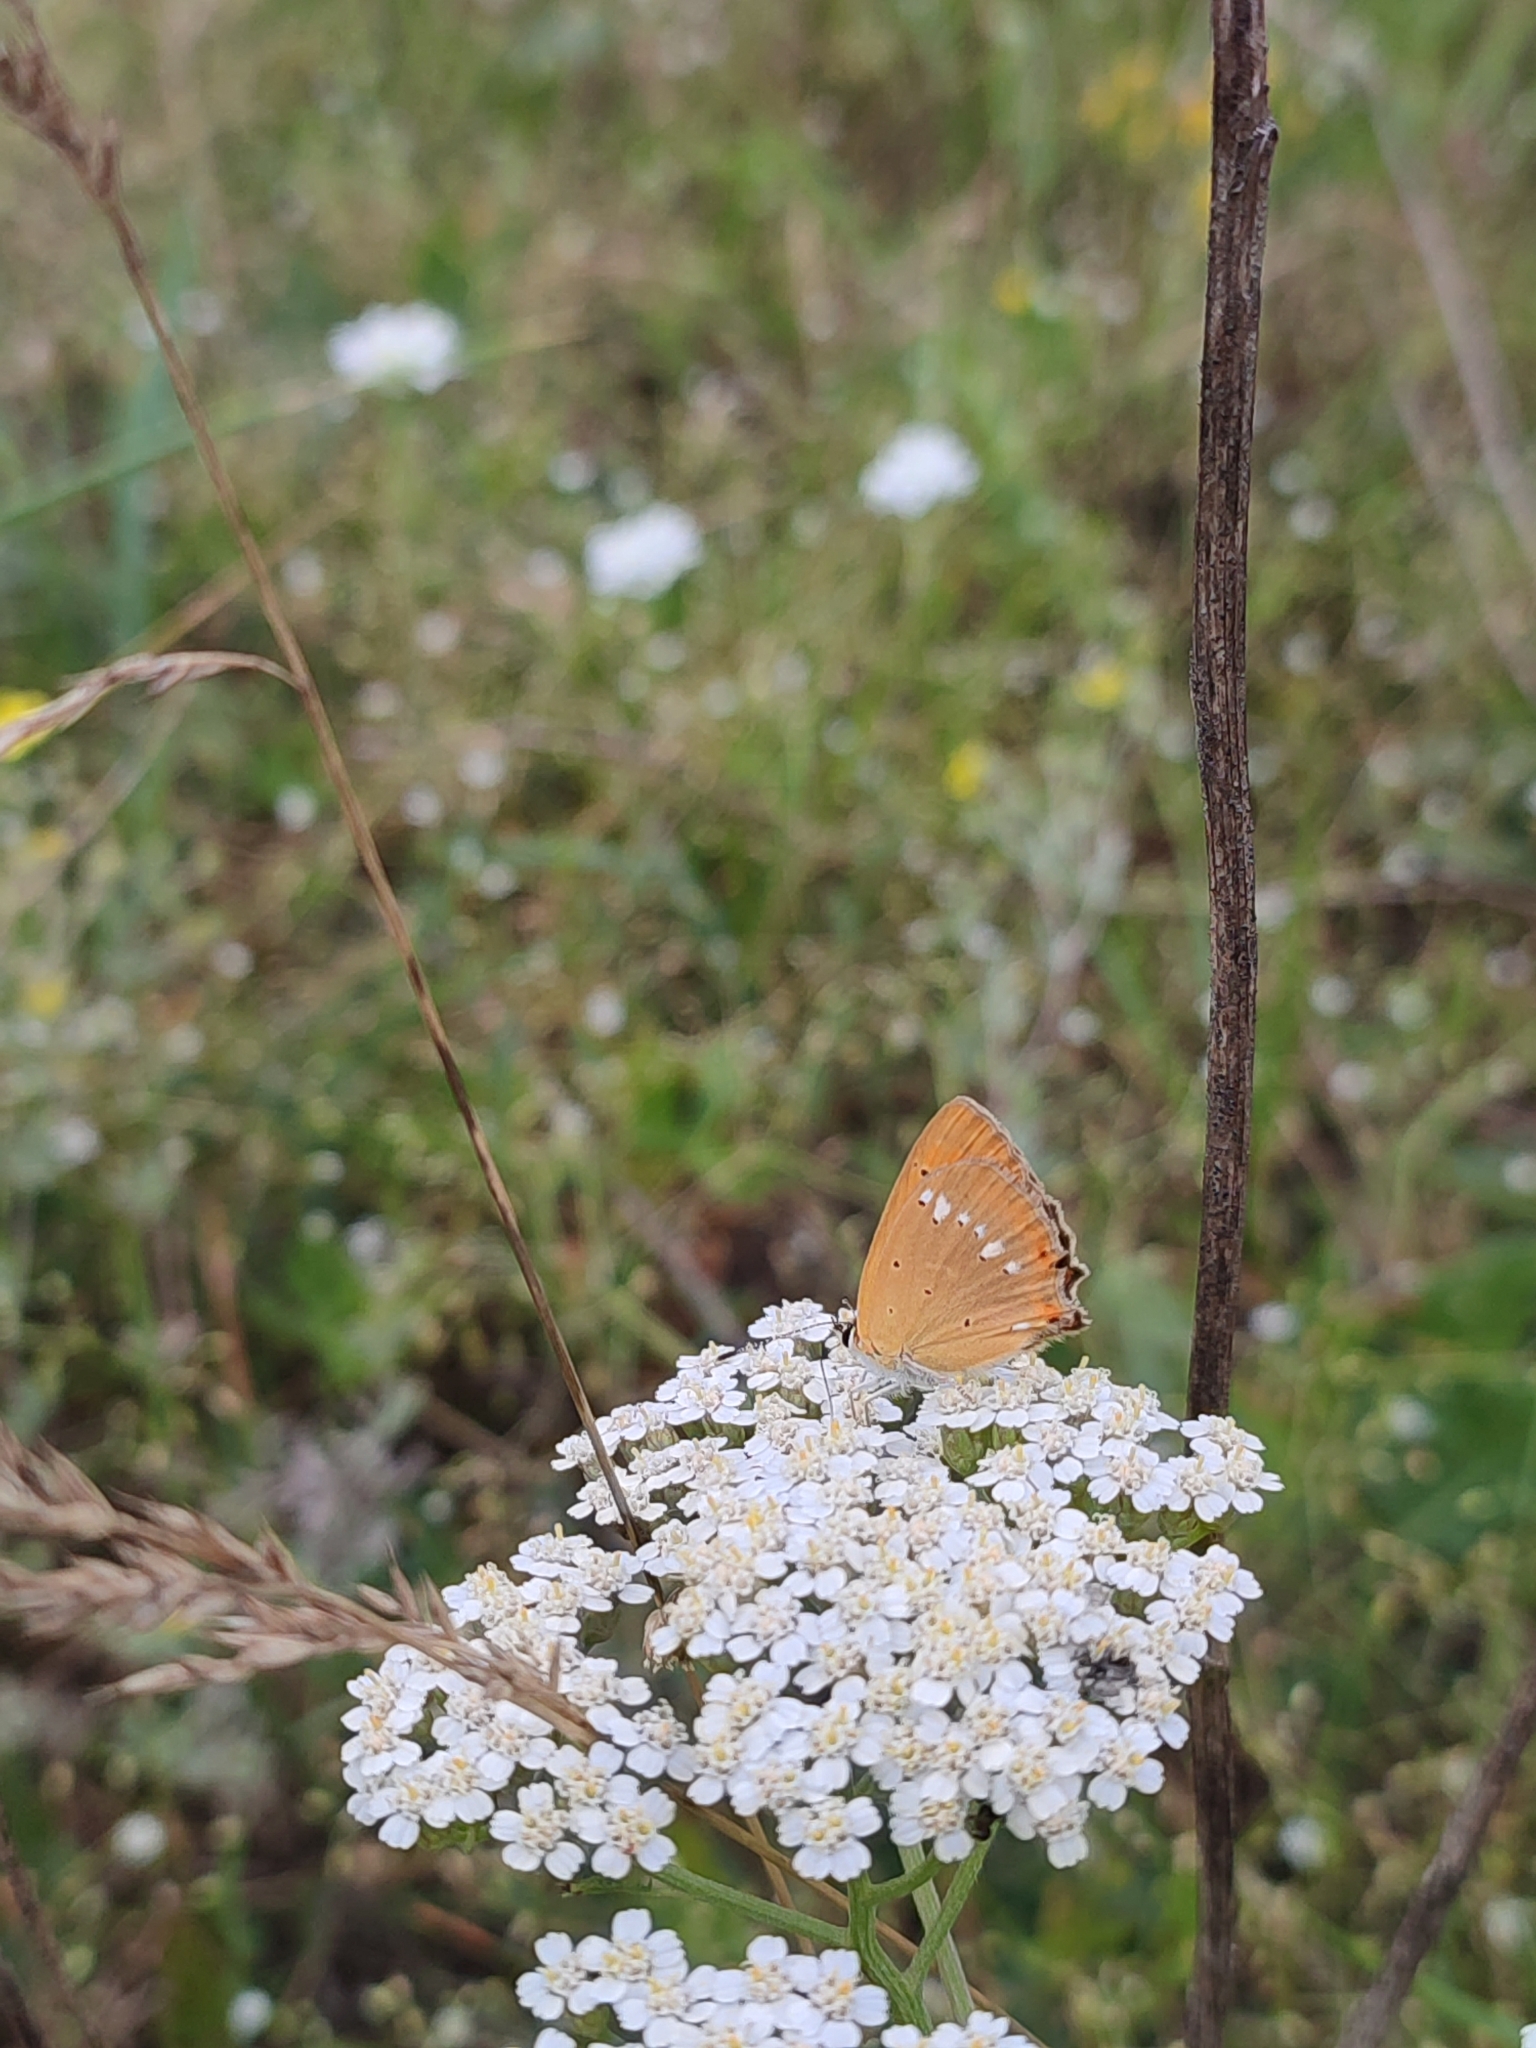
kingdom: Animalia
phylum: Arthropoda
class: Insecta
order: Lepidoptera
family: Lycaenidae
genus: Lycaena
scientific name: Lycaena virgaureae
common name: Scarce copper
